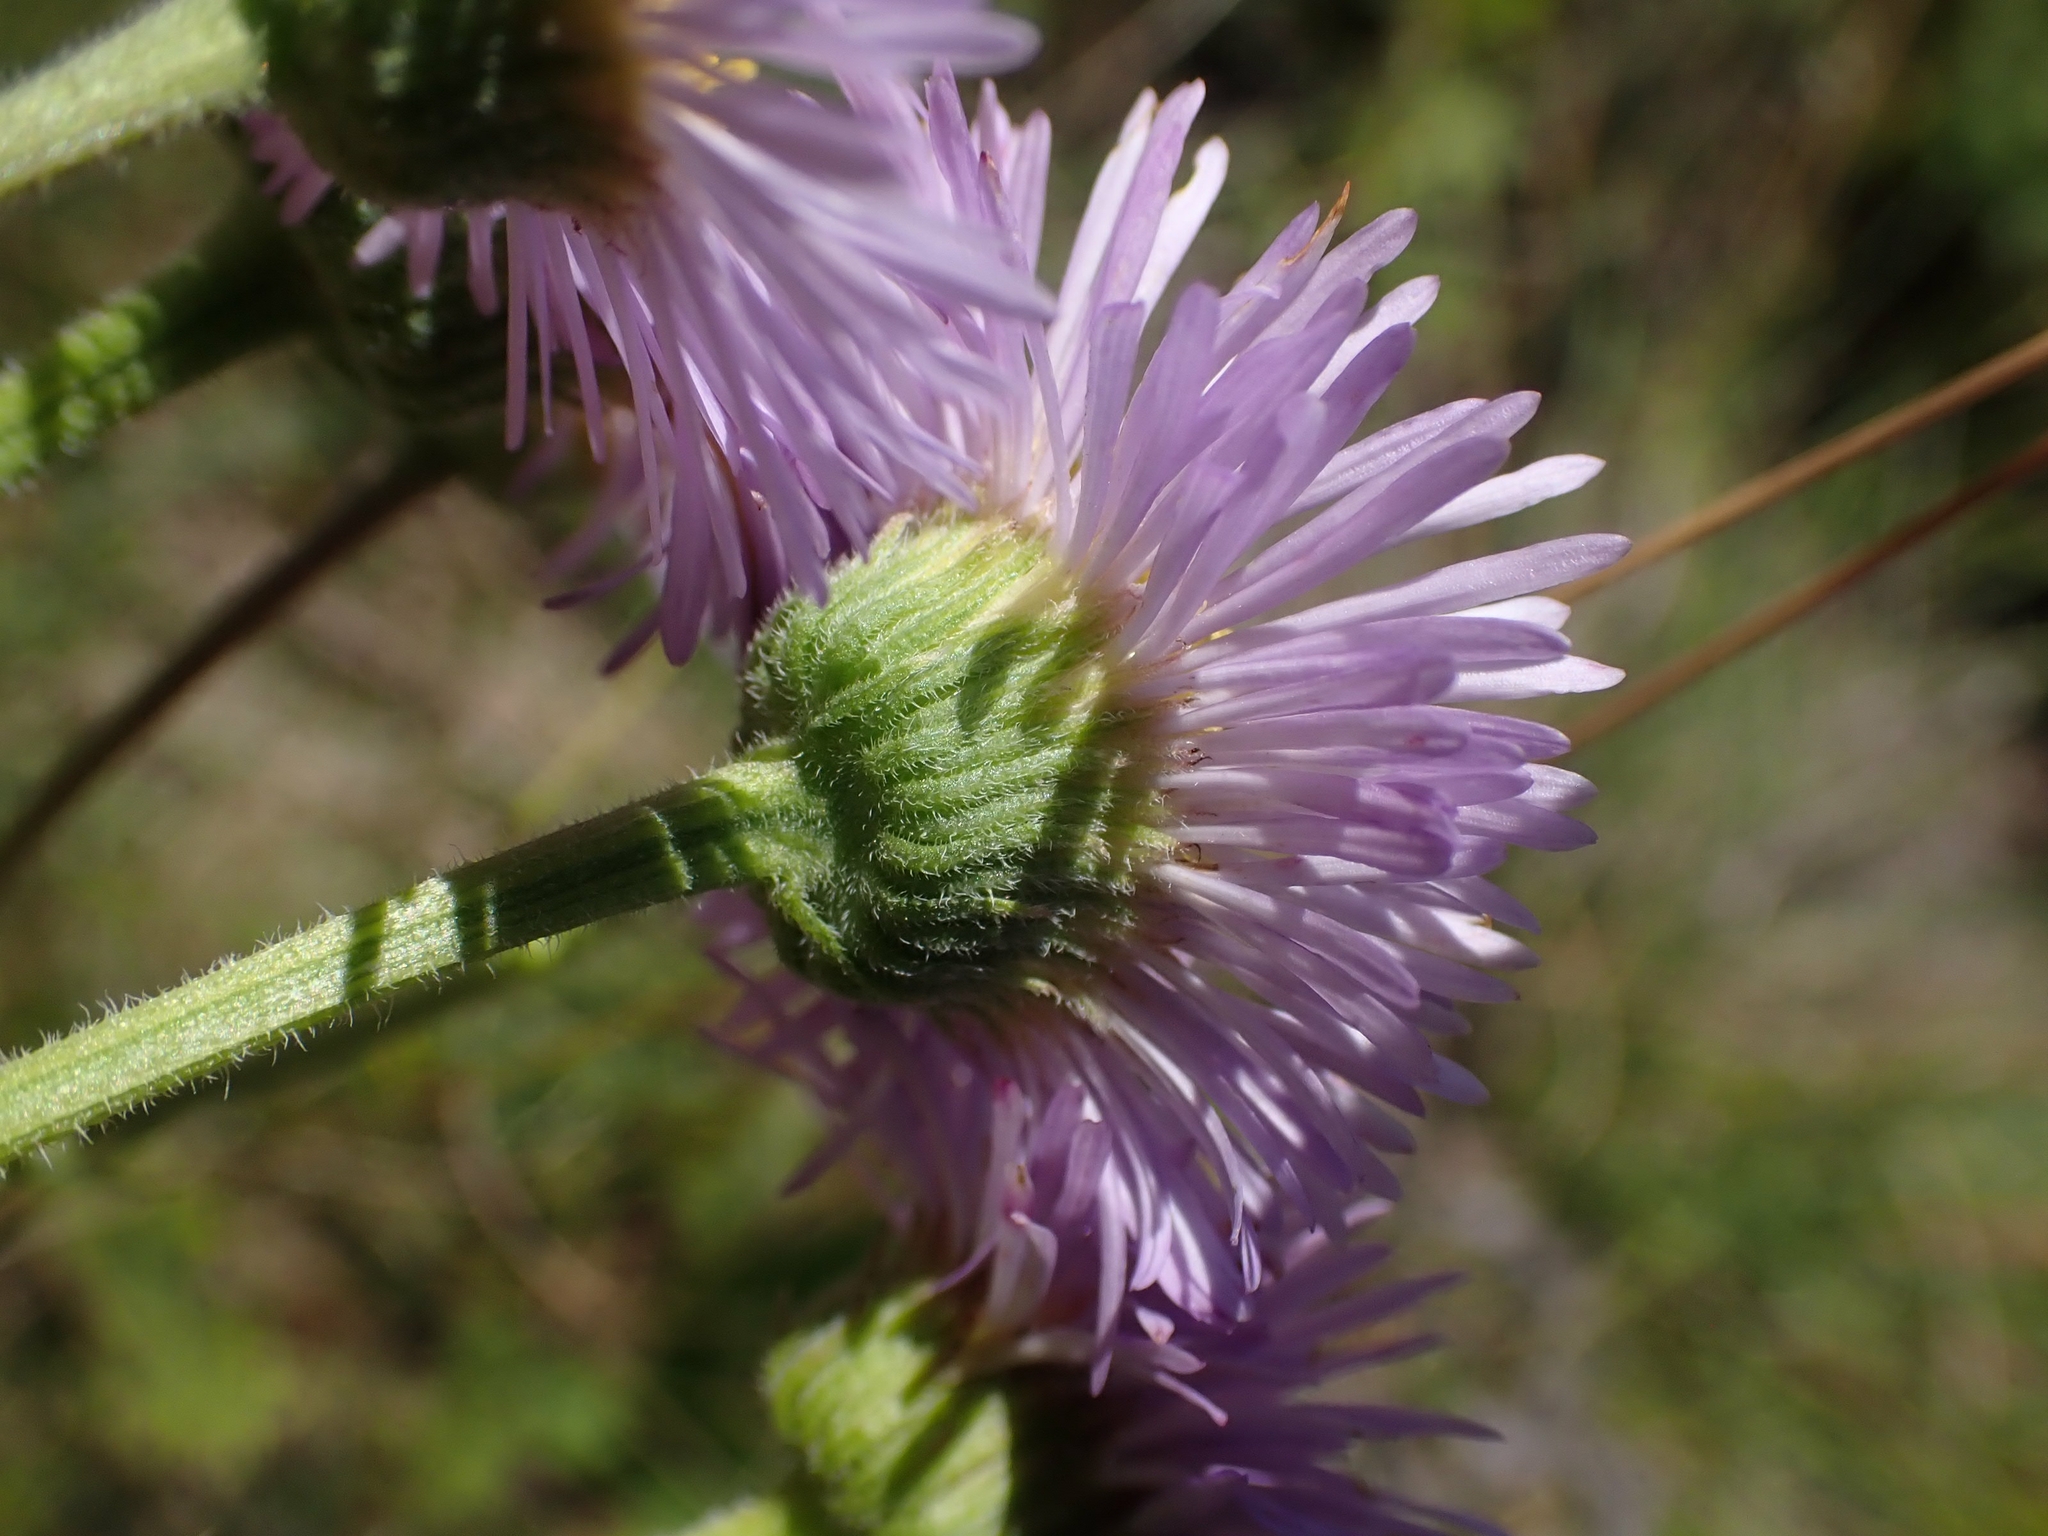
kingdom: Plantae
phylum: Tracheophyta
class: Magnoliopsida
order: Asterales
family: Asteraceae
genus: Erigeron
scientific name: Erigeron caespitosus
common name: Tufted fleabane
